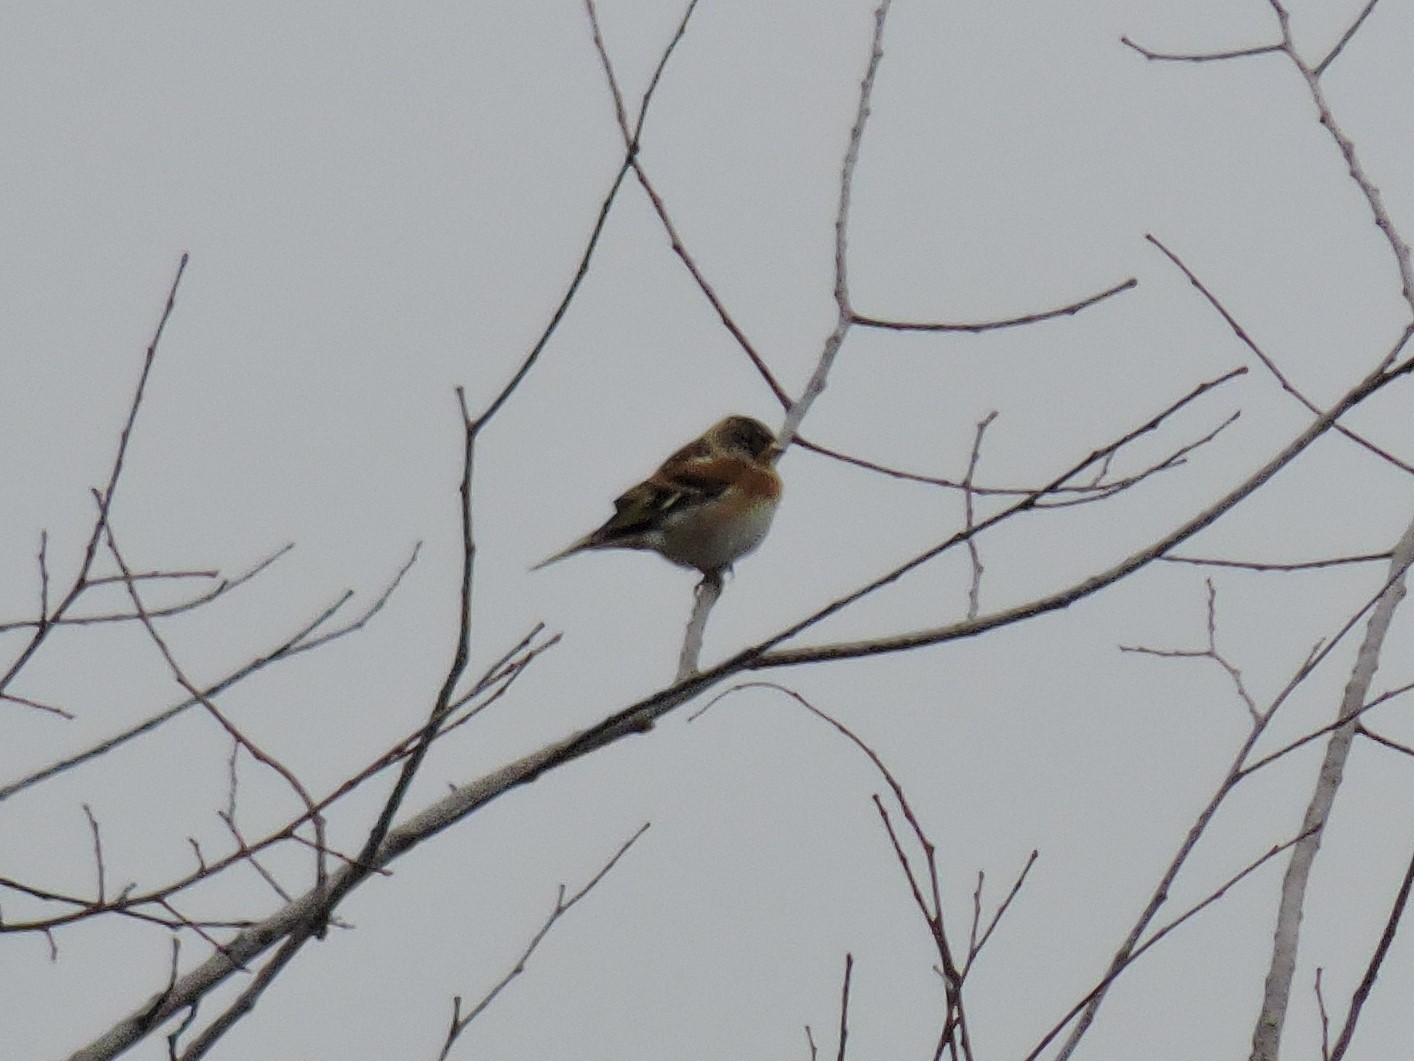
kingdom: Animalia
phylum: Chordata
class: Aves
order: Passeriformes
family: Fringillidae
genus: Fringilla
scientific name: Fringilla montifringilla
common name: Brambling
